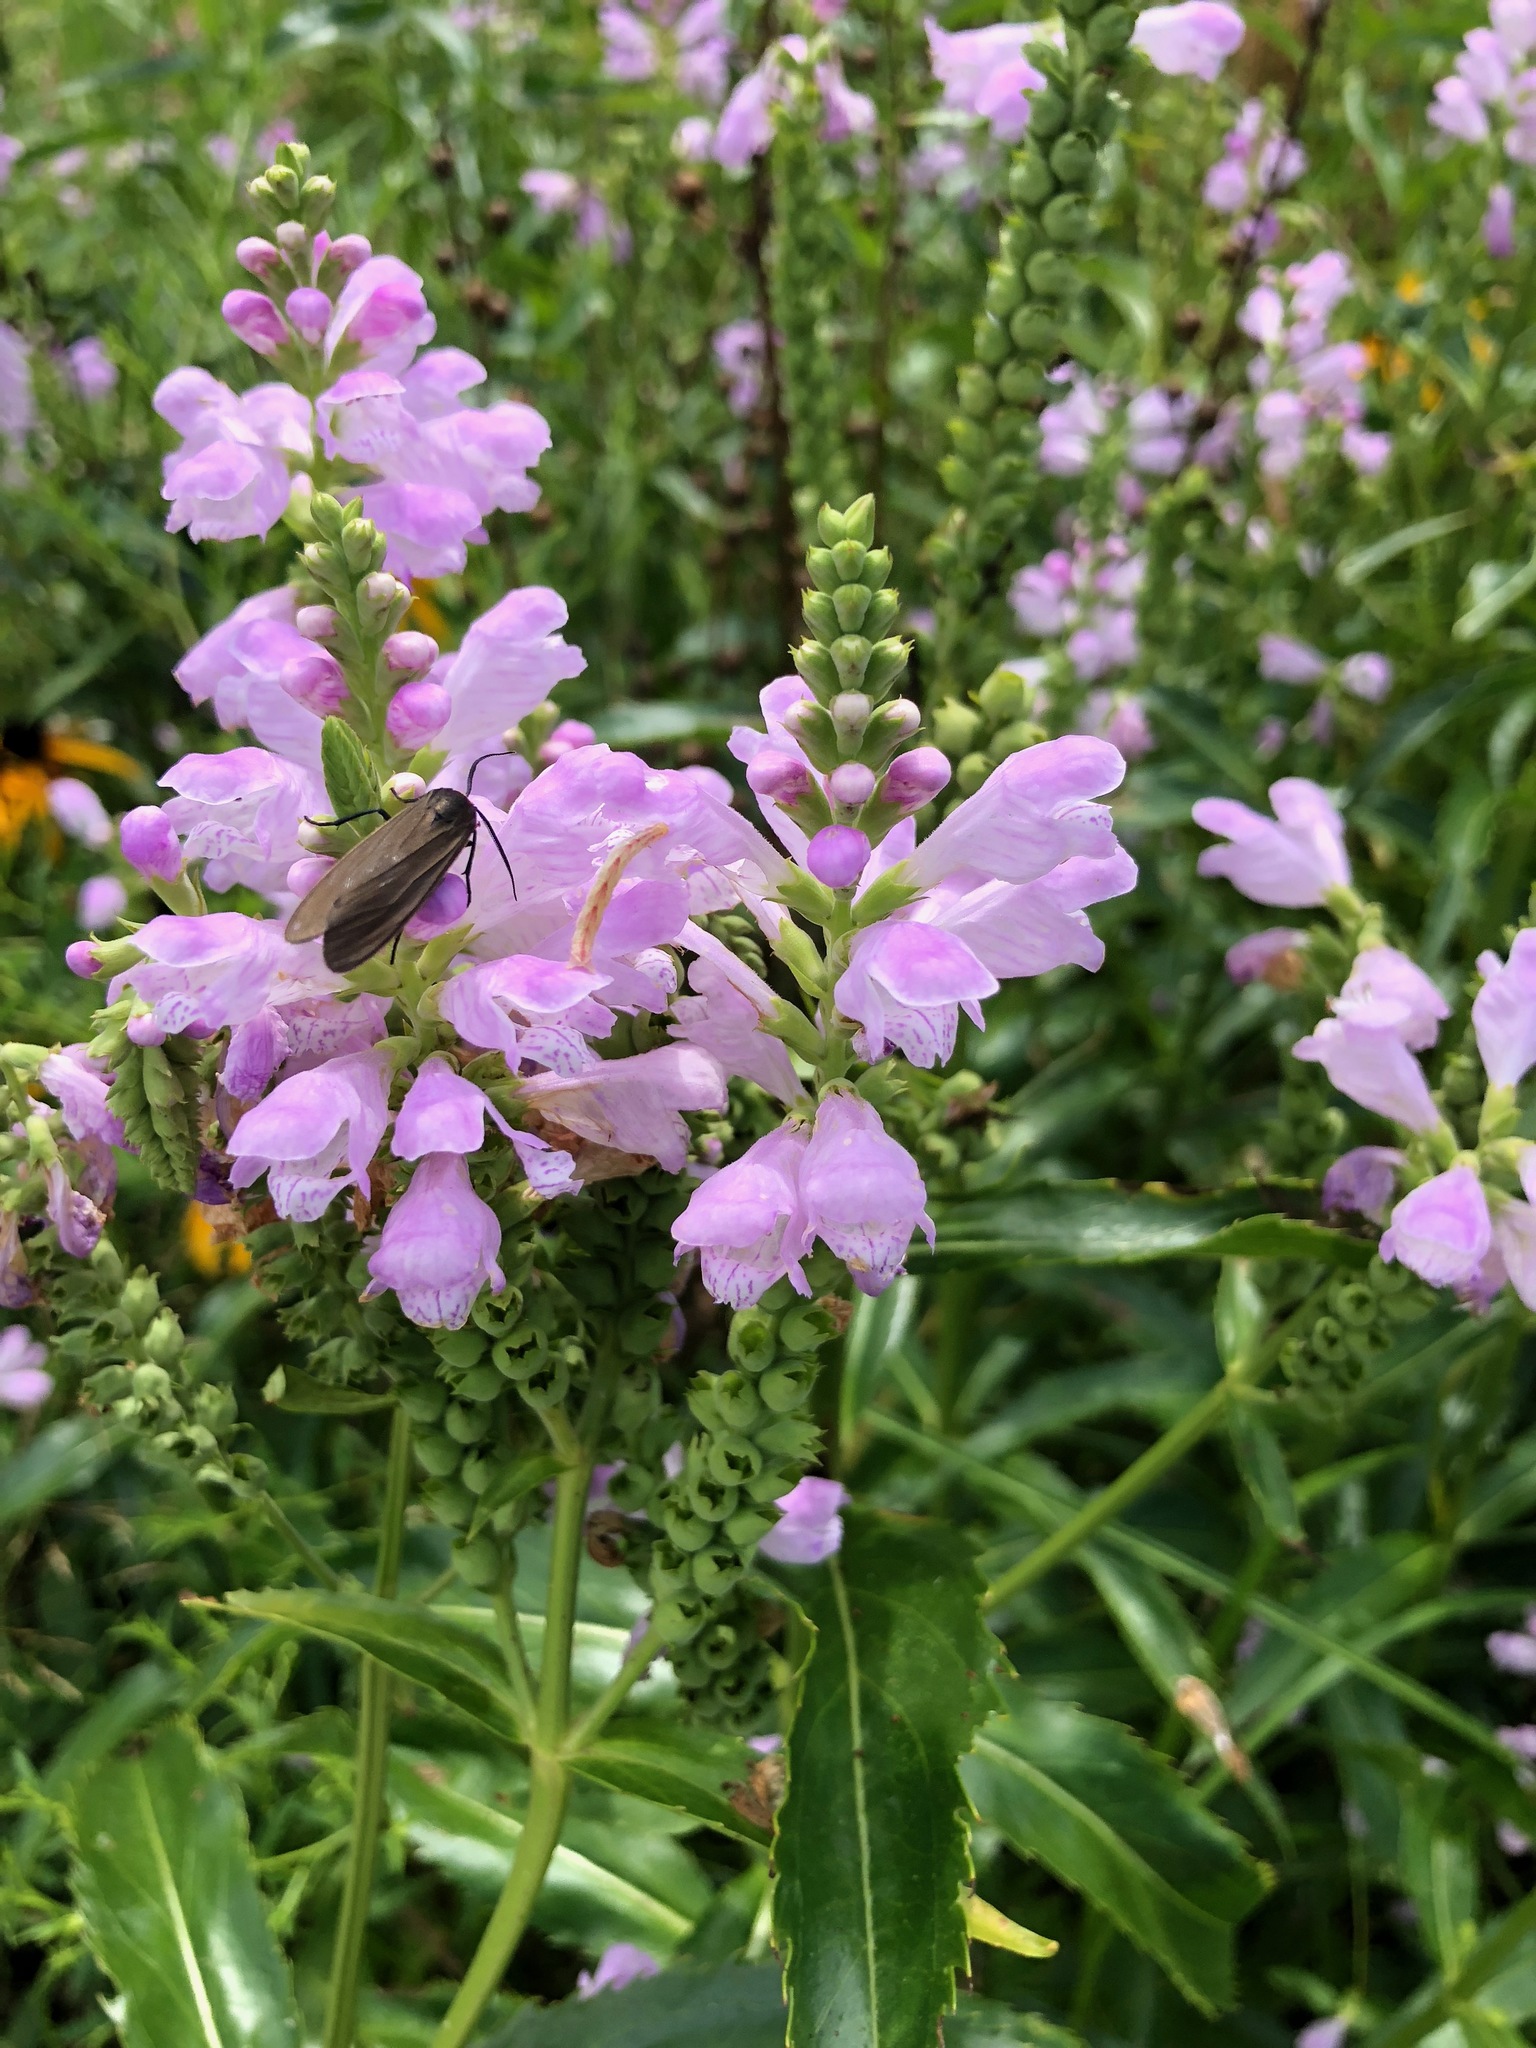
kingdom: Plantae
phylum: Tracheophyta
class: Magnoliopsida
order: Lamiales
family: Lamiaceae
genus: Physostegia
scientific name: Physostegia virginiana
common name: Obedient-plant
